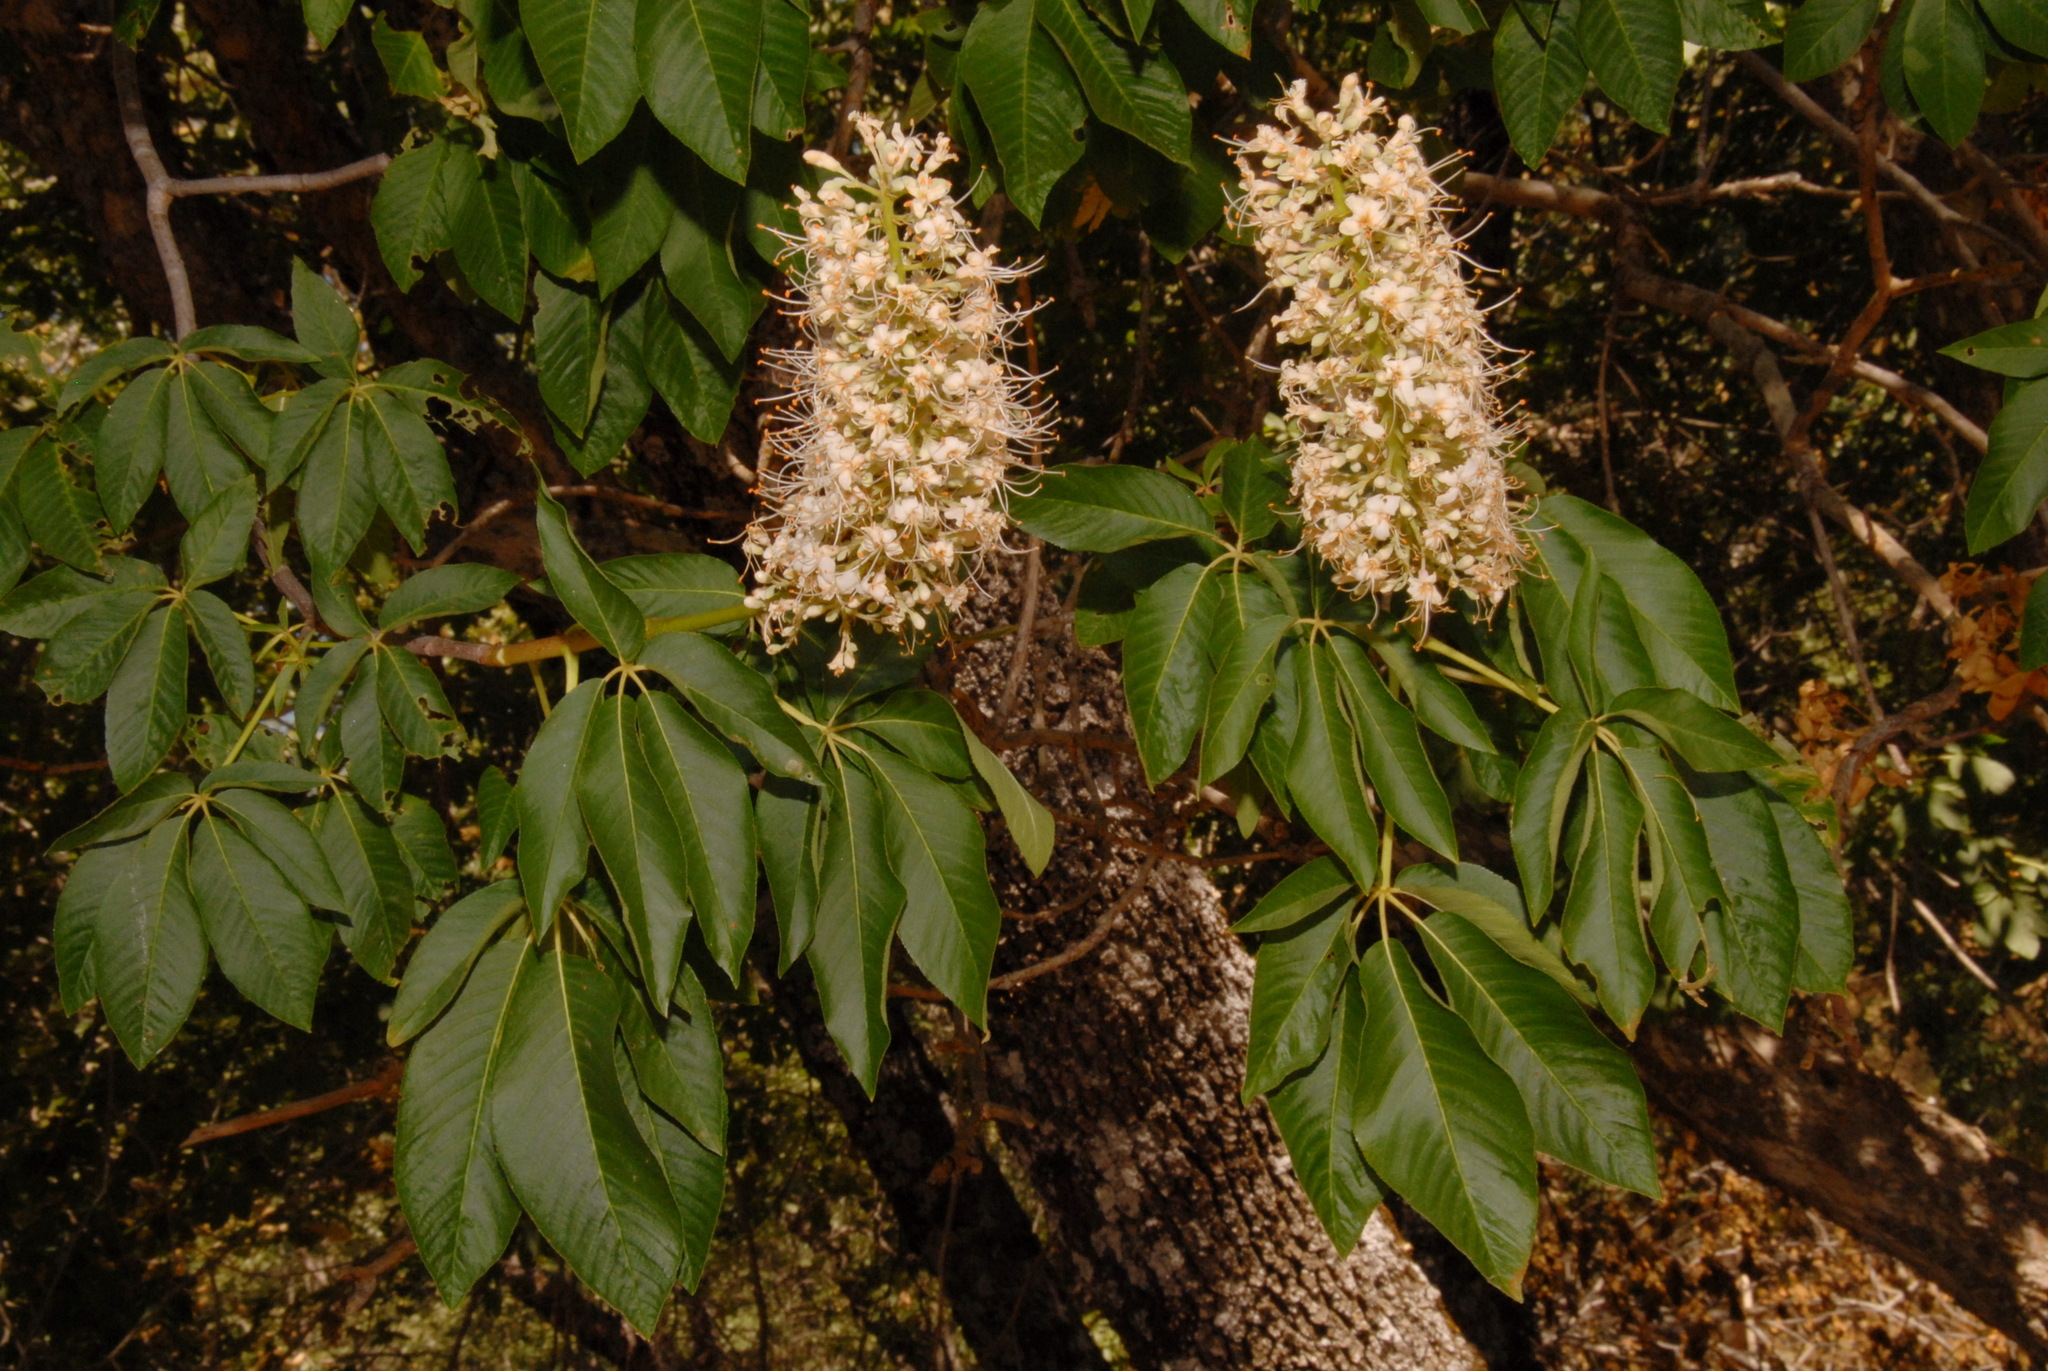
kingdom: Plantae
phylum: Tracheophyta
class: Magnoliopsida
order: Sapindales
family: Sapindaceae
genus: Aesculus
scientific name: Aesculus californica
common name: California buckeye
